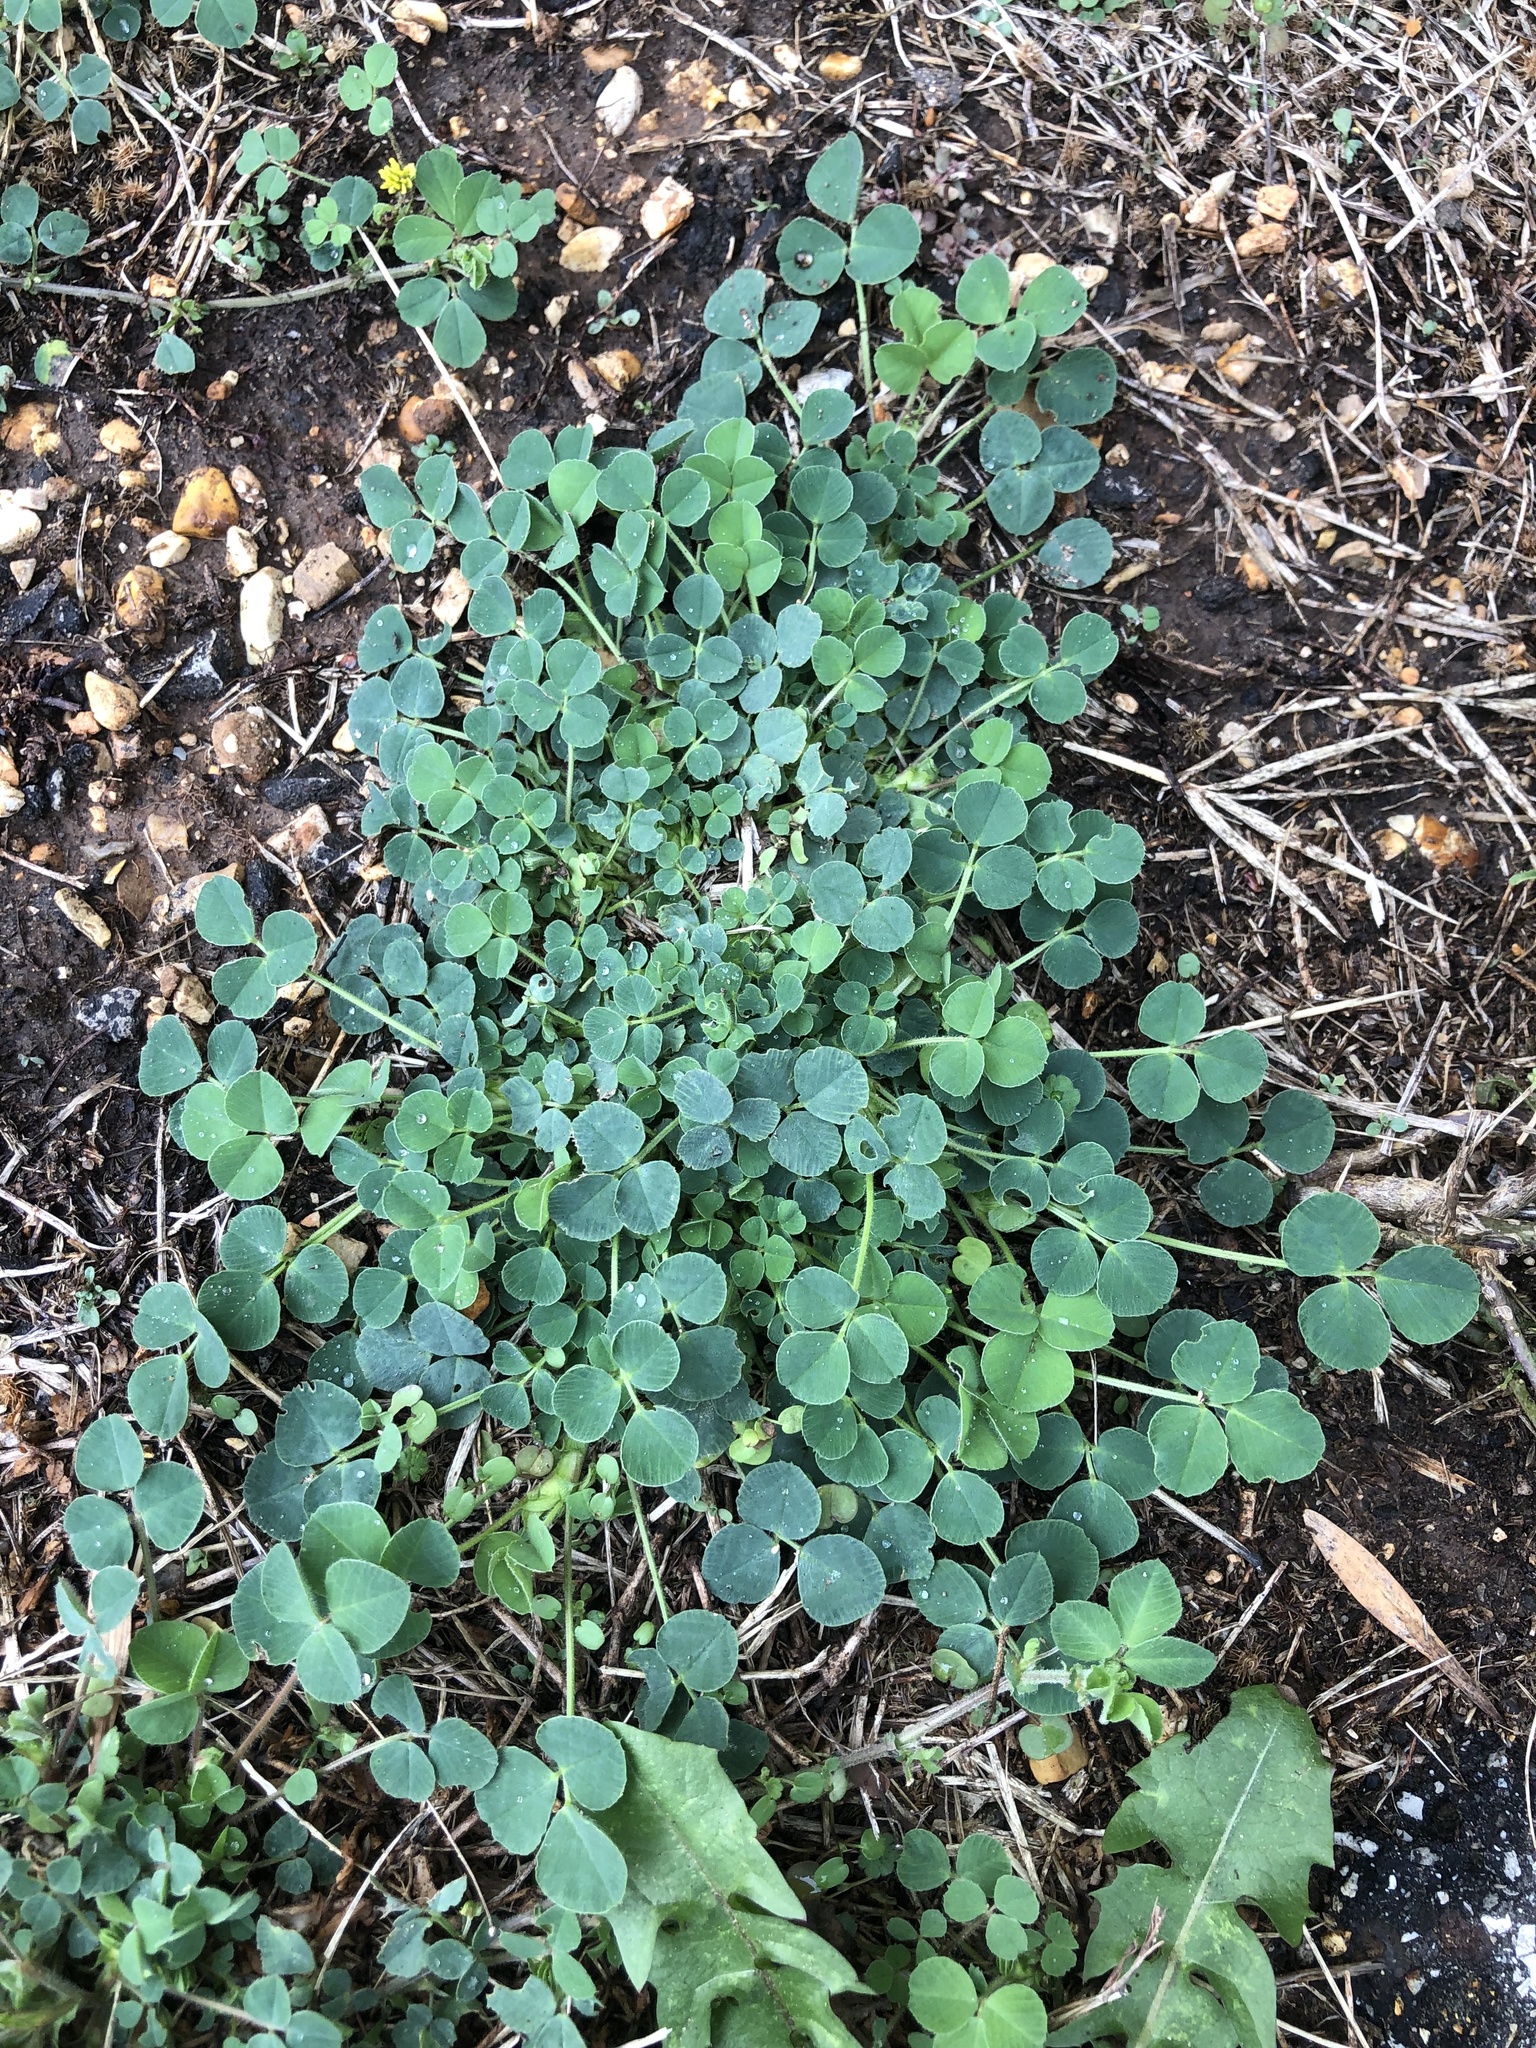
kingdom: Plantae
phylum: Tracheophyta
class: Magnoliopsida
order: Fabales
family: Fabaceae
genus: Medicago
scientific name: Medicago lupulina
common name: Black medick
